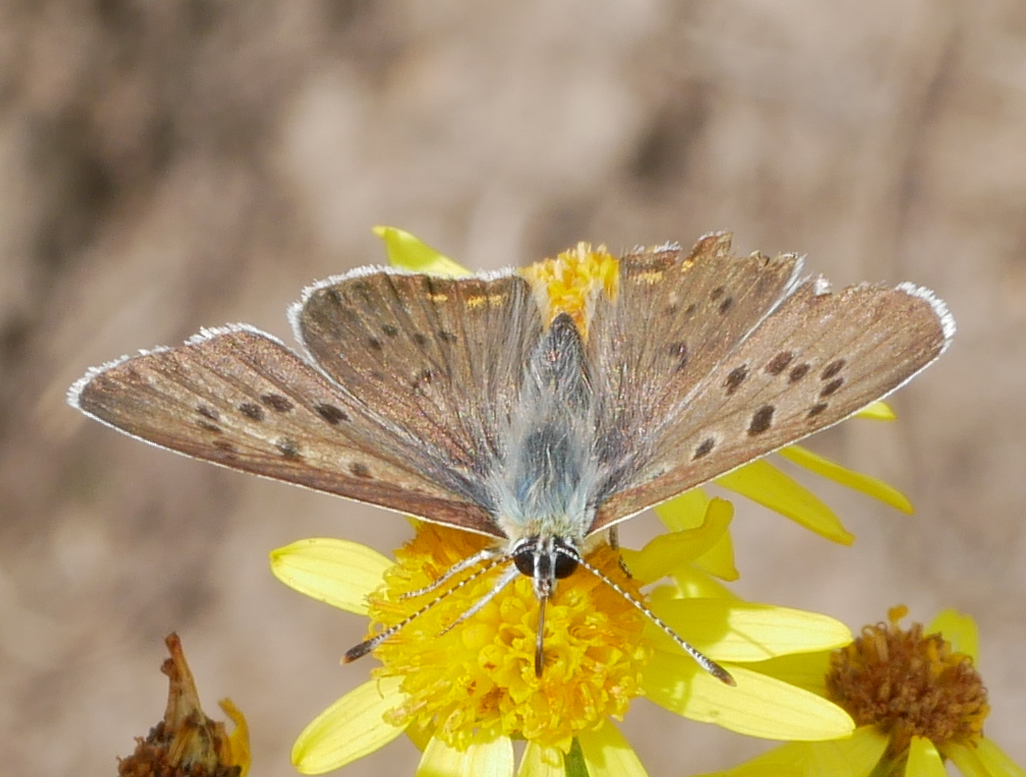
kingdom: Animalia
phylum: Arthropoda
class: Insecta
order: Lepidoptera
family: Lycaenidae
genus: Loweia
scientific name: Loweia tityrus
